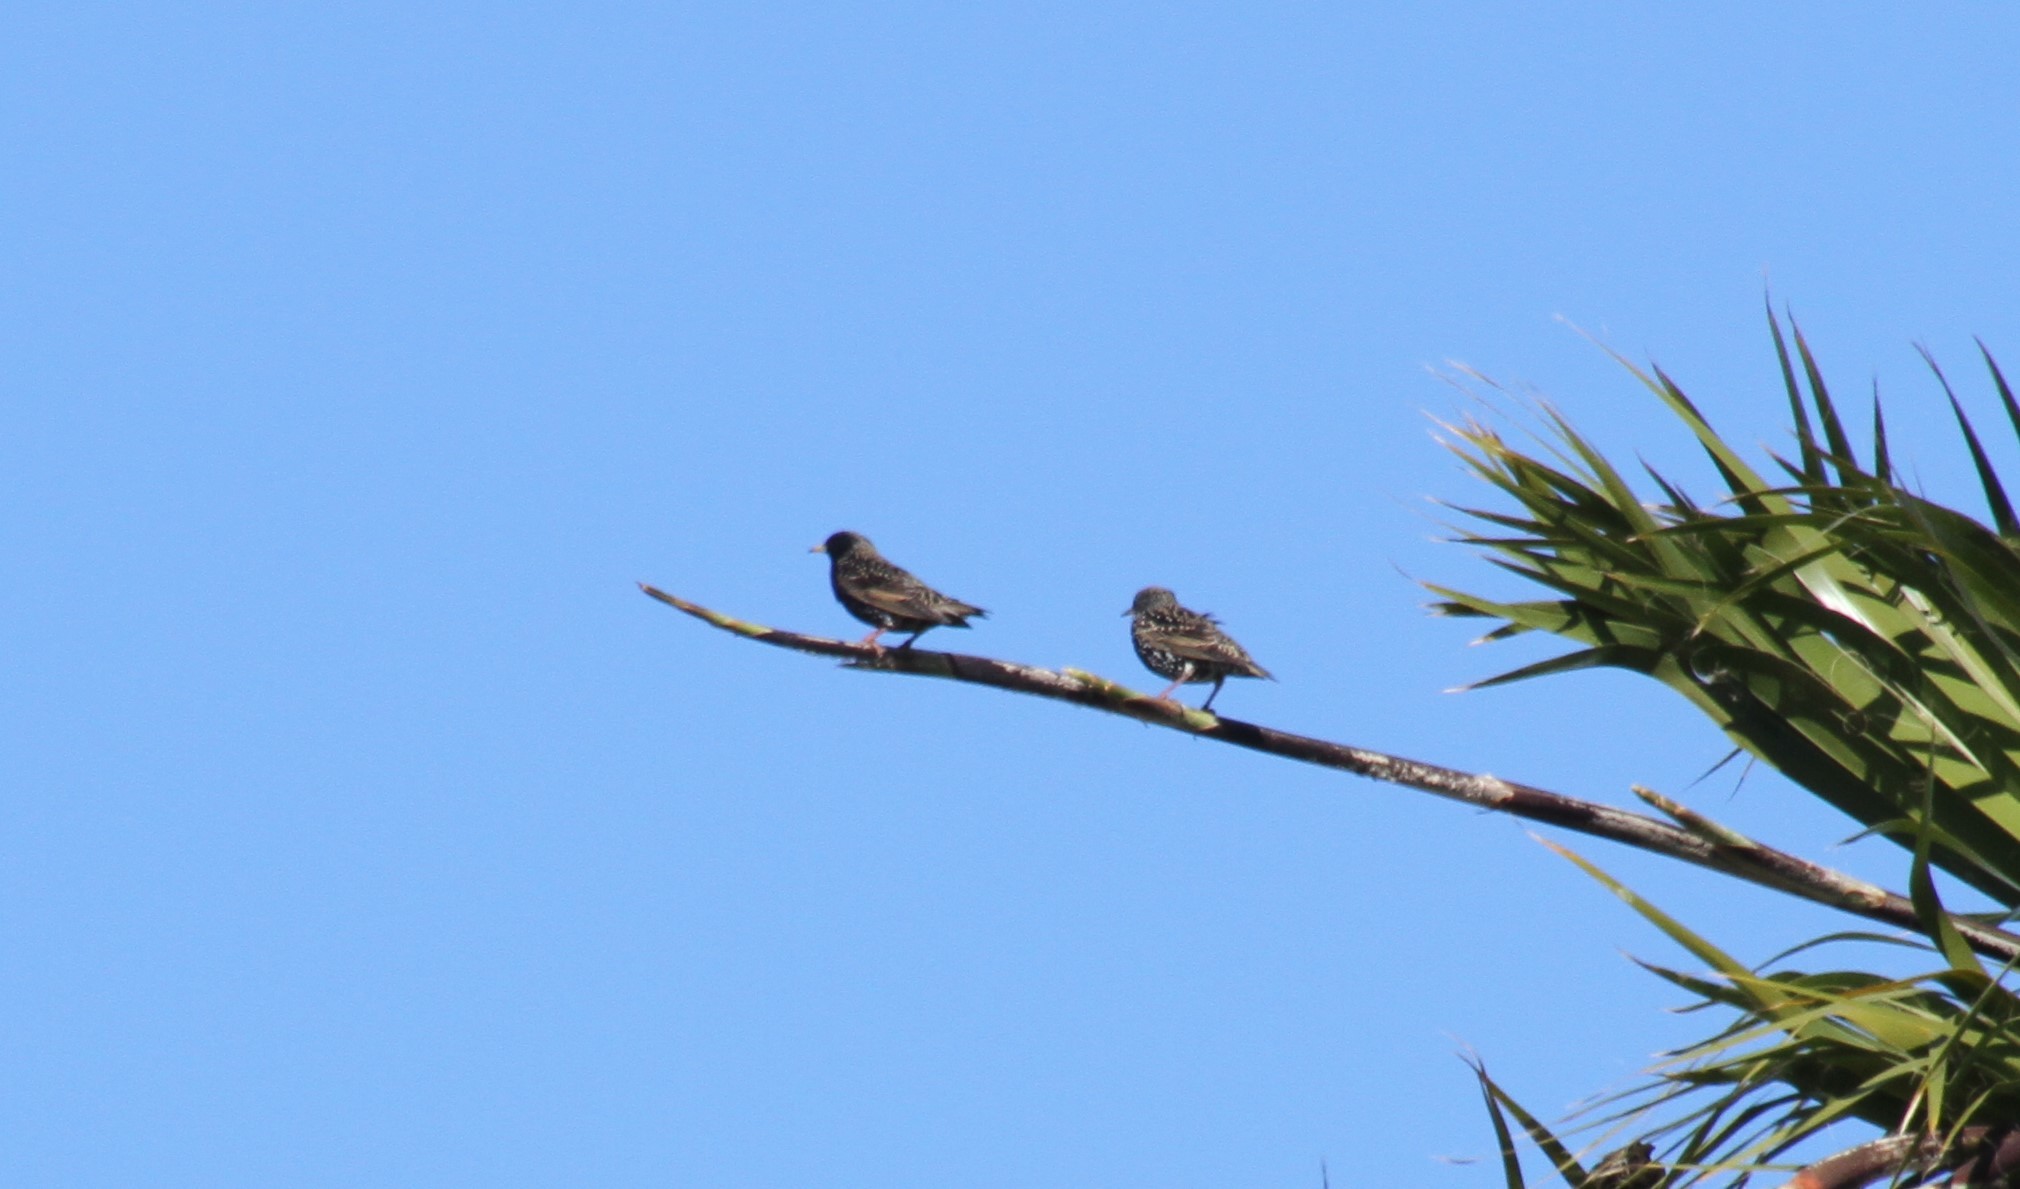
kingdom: Animalia
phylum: Chordata
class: Aves
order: Passeriformes
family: Sturnidae
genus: Sturnus
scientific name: Sturnus vulgaris
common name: Common starling
